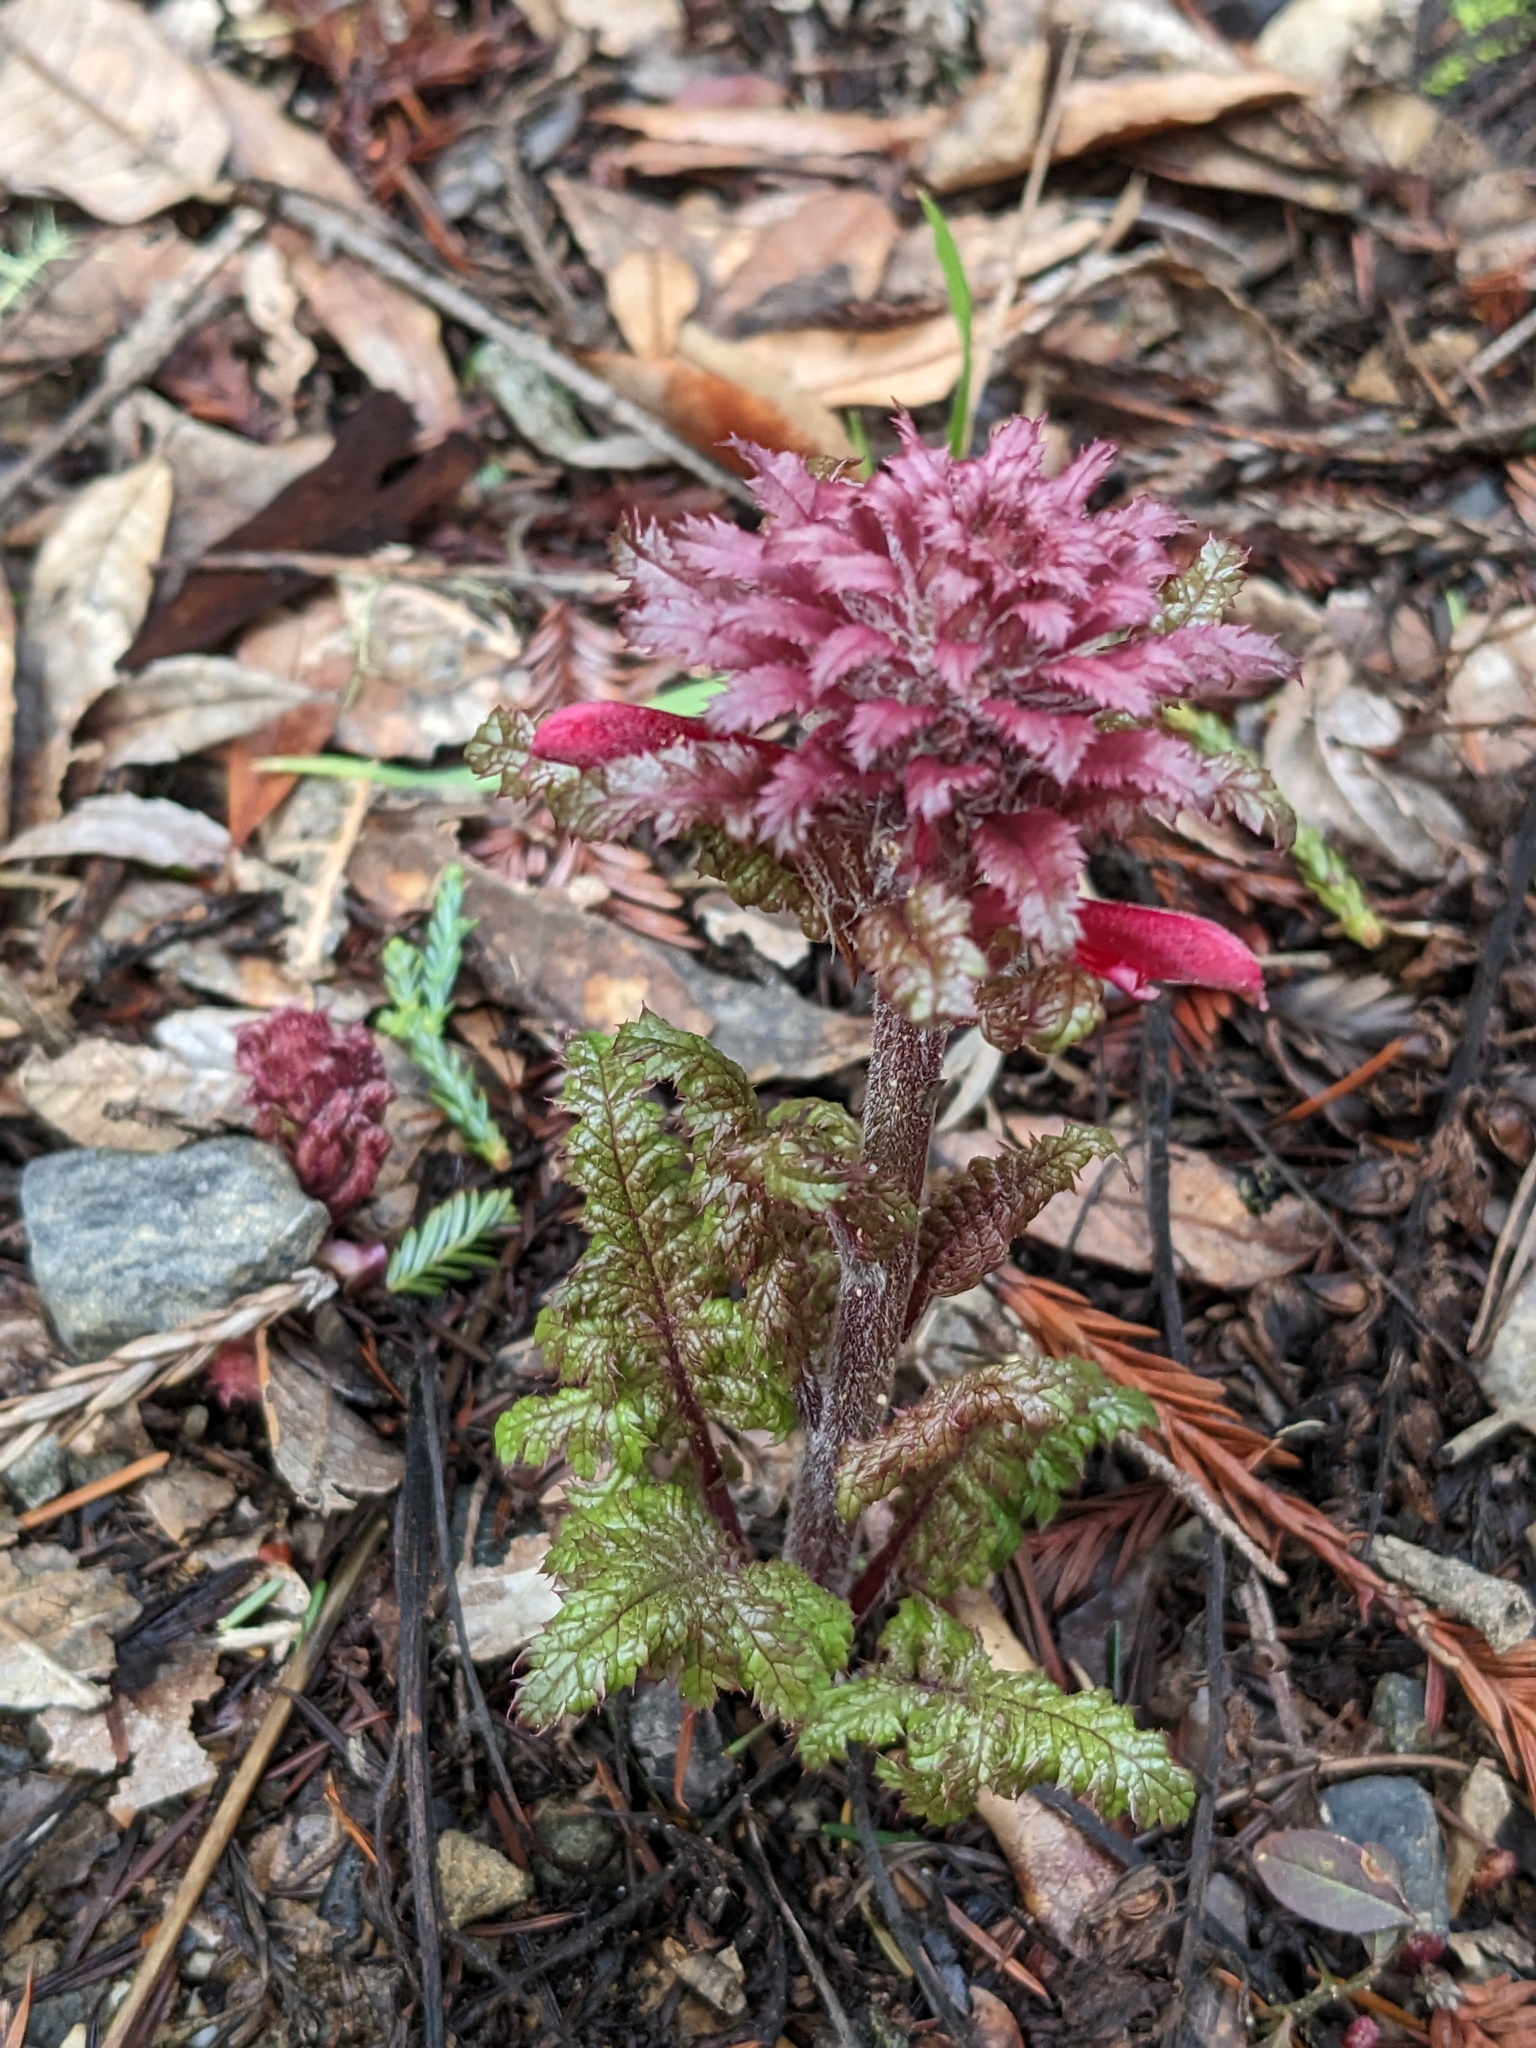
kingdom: Plantae
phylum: Tracheophyta
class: Magnoliopsida
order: Lamiales
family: Orobanchaceae
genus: Pedicularis
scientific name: Pedicularis densiflora
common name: Indian warrior
